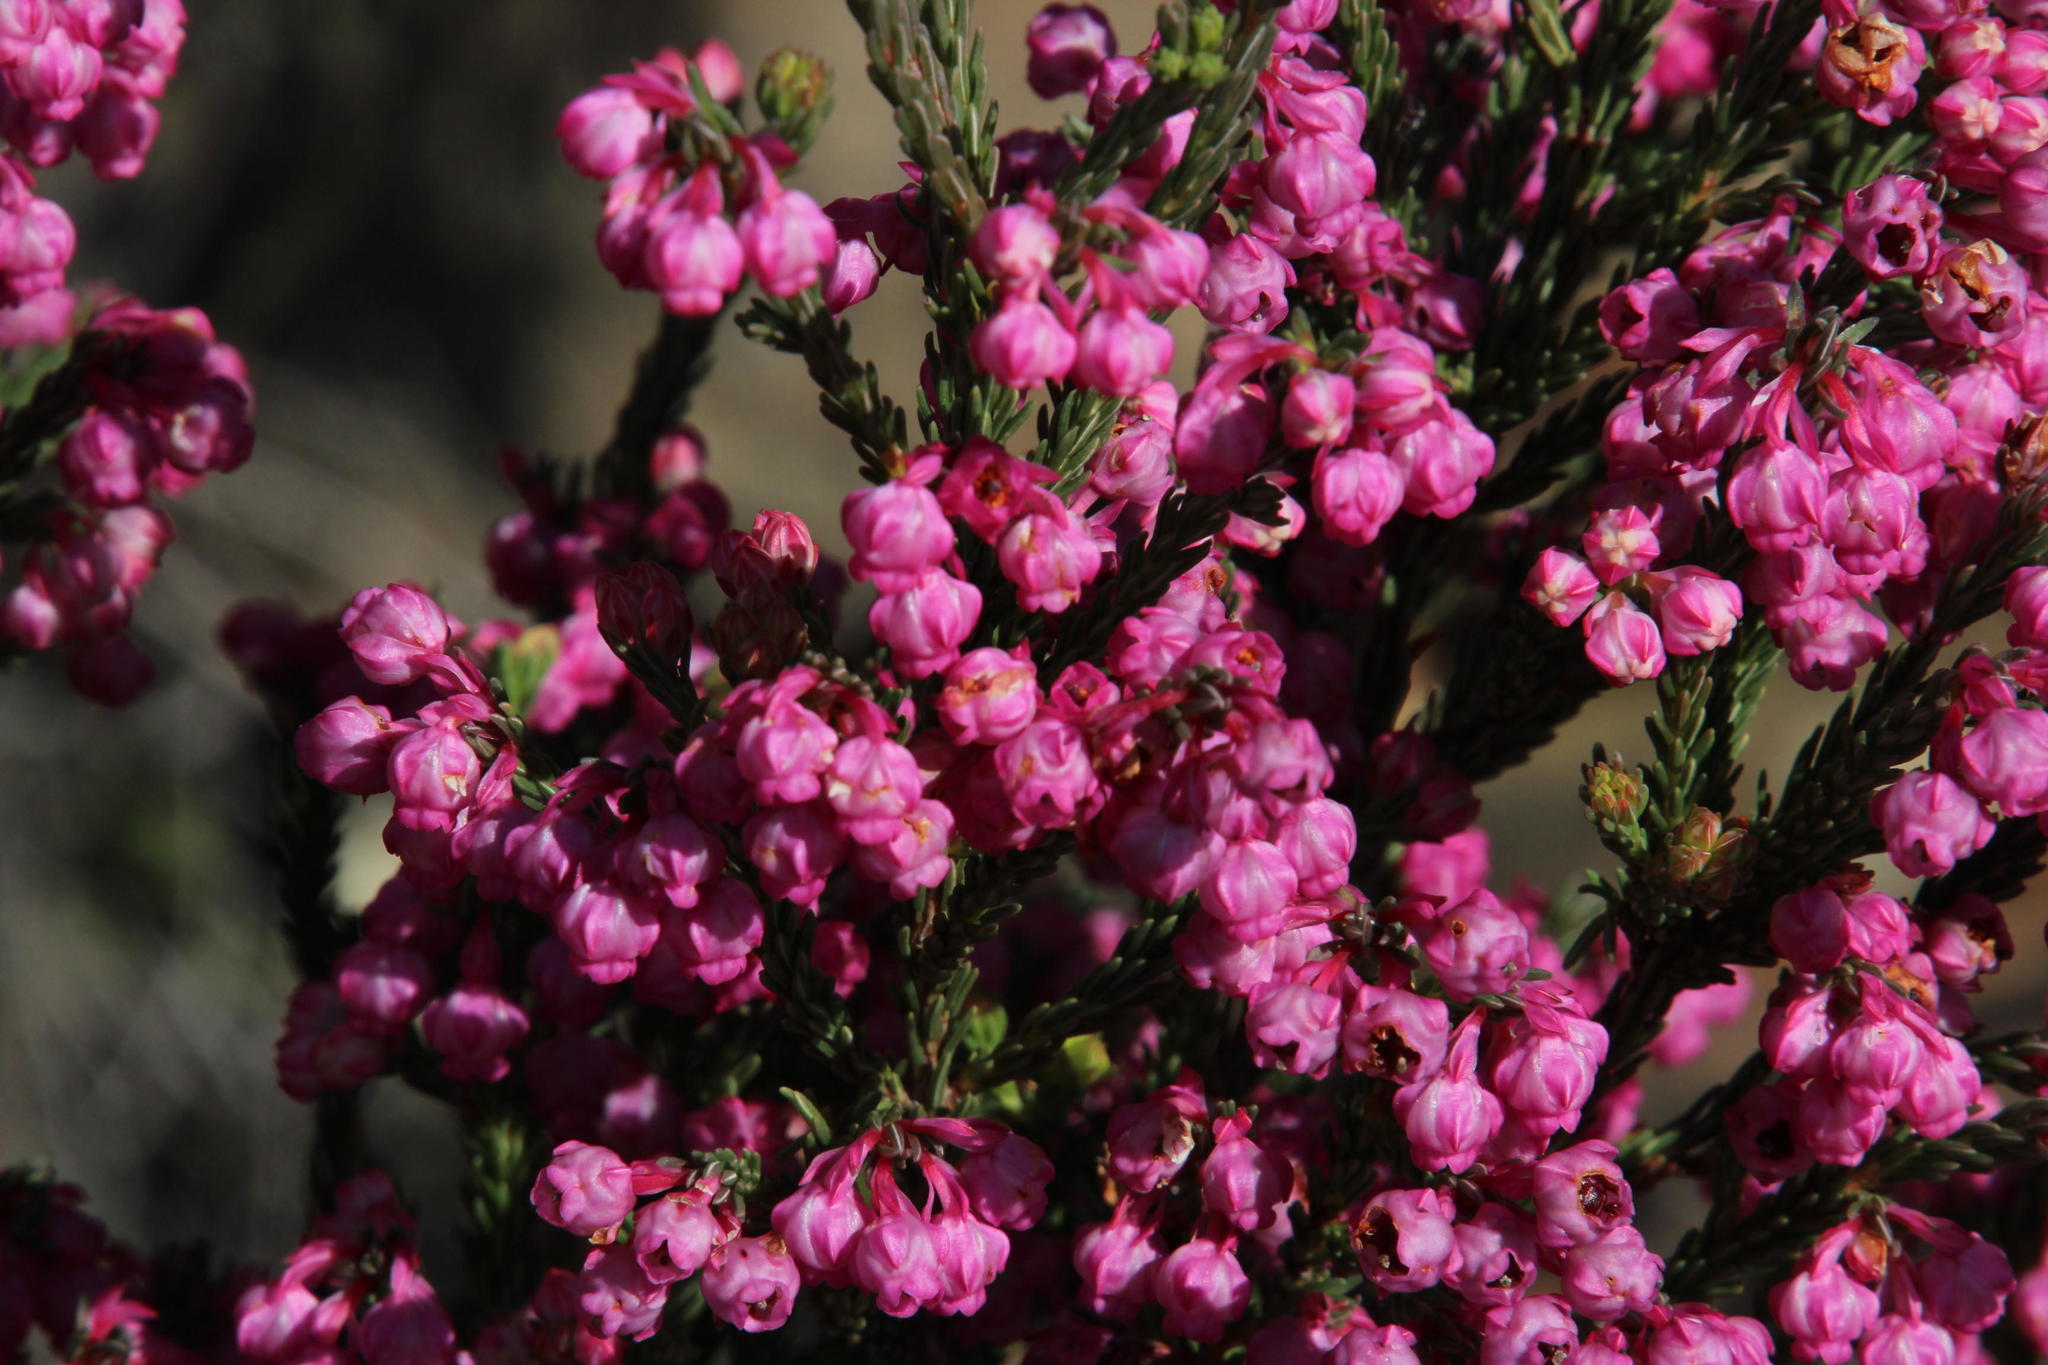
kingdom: Plantae
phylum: Tracheophyta
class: Magnoliopsida
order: Ericales
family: Ericaceae
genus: Erica
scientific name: Erica baccans
